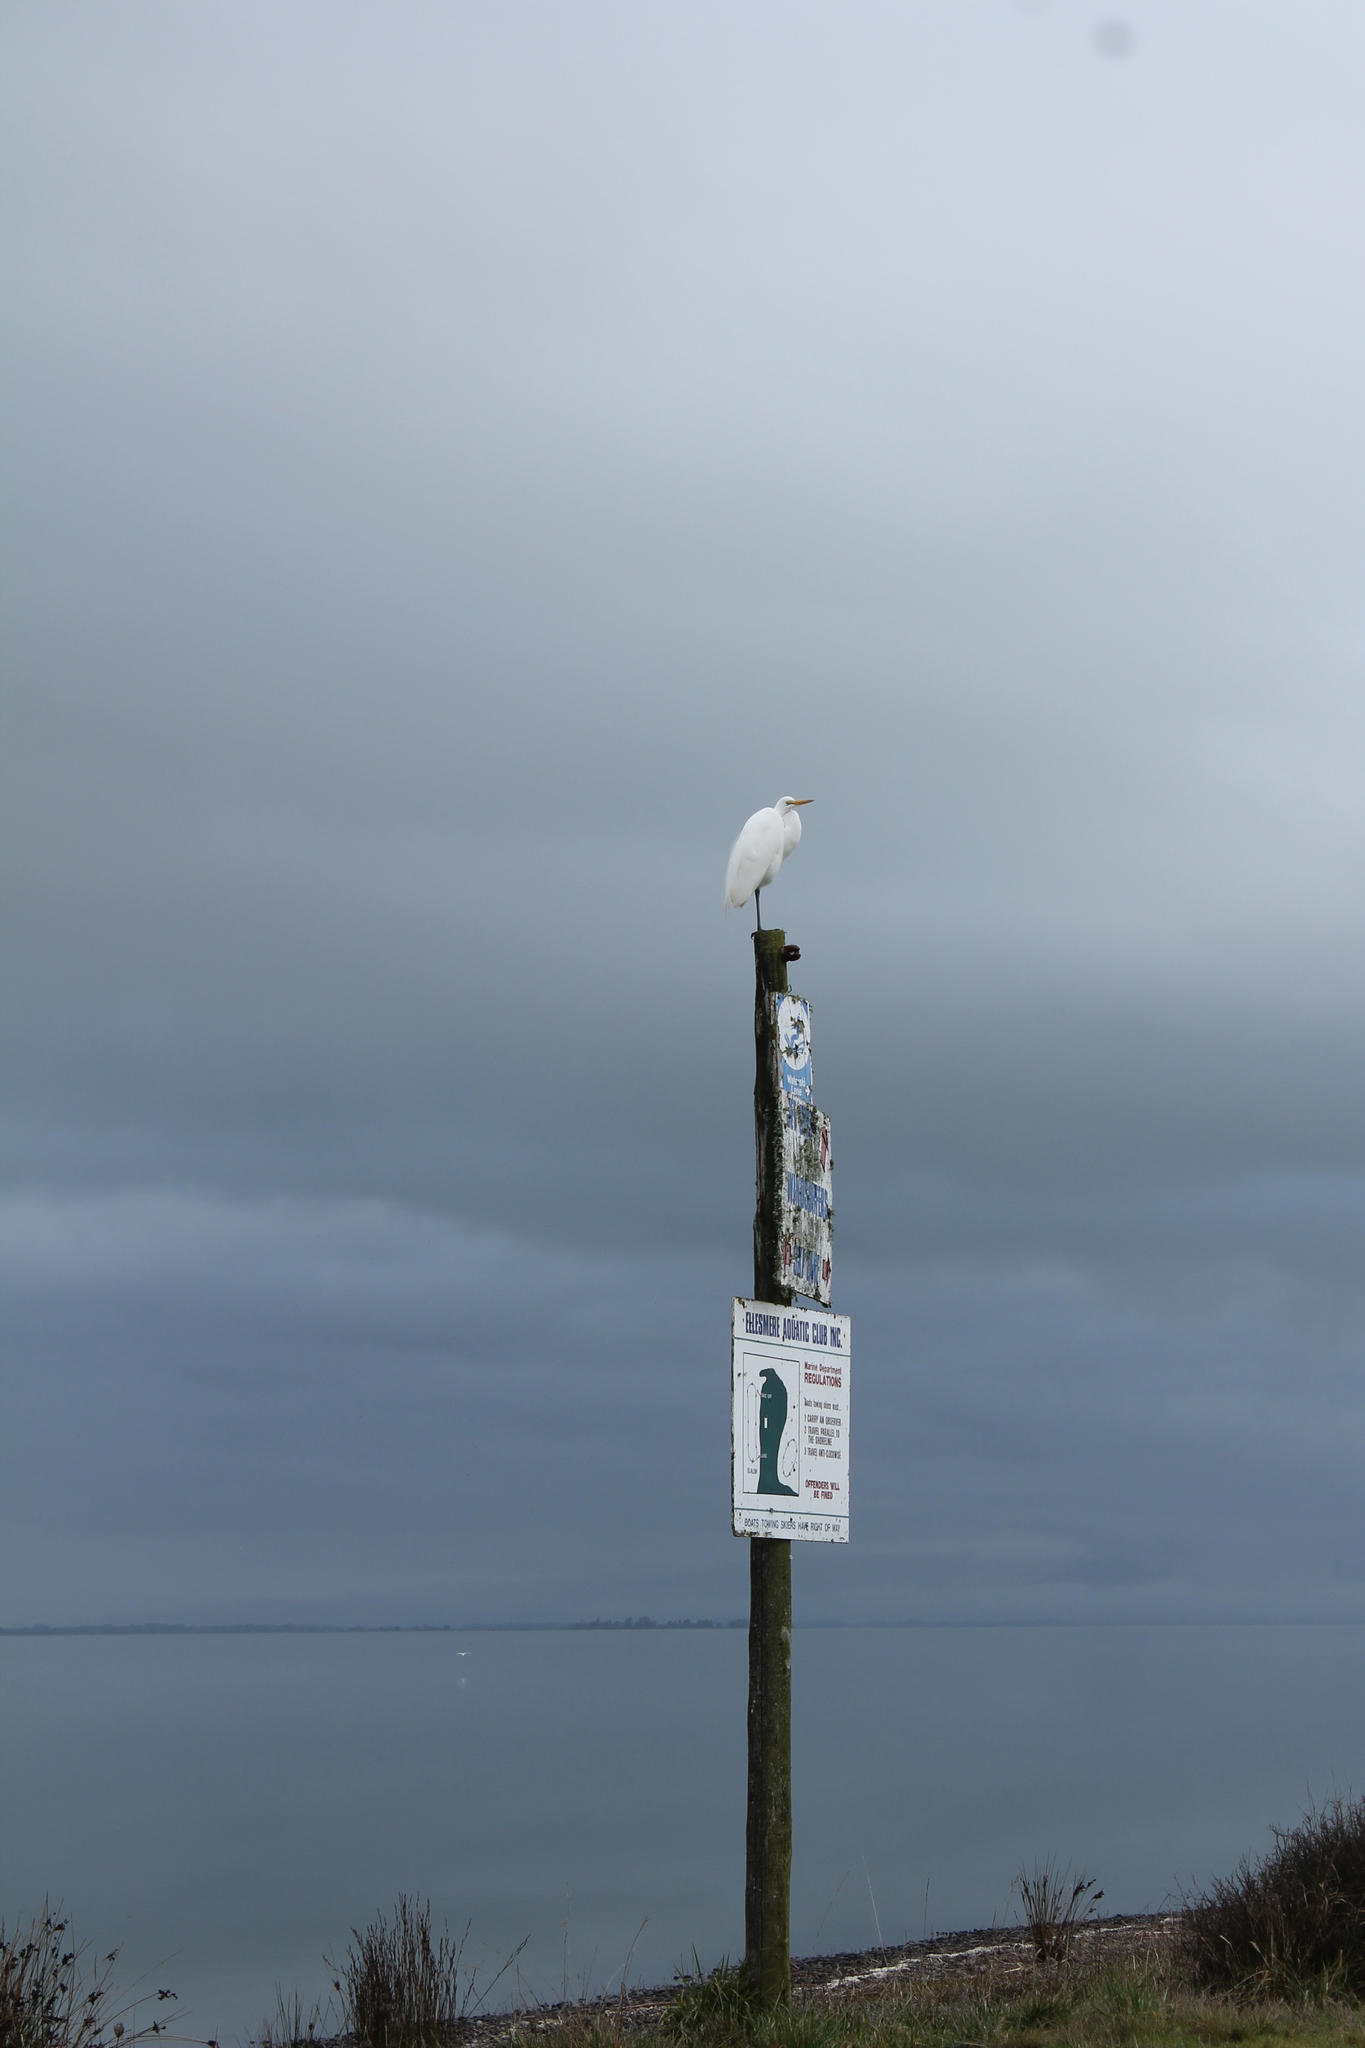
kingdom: Animalia
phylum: Chordata
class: Aves
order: Pelecaniformes
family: Ardeidae
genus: Ardea
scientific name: Ardea modesta
